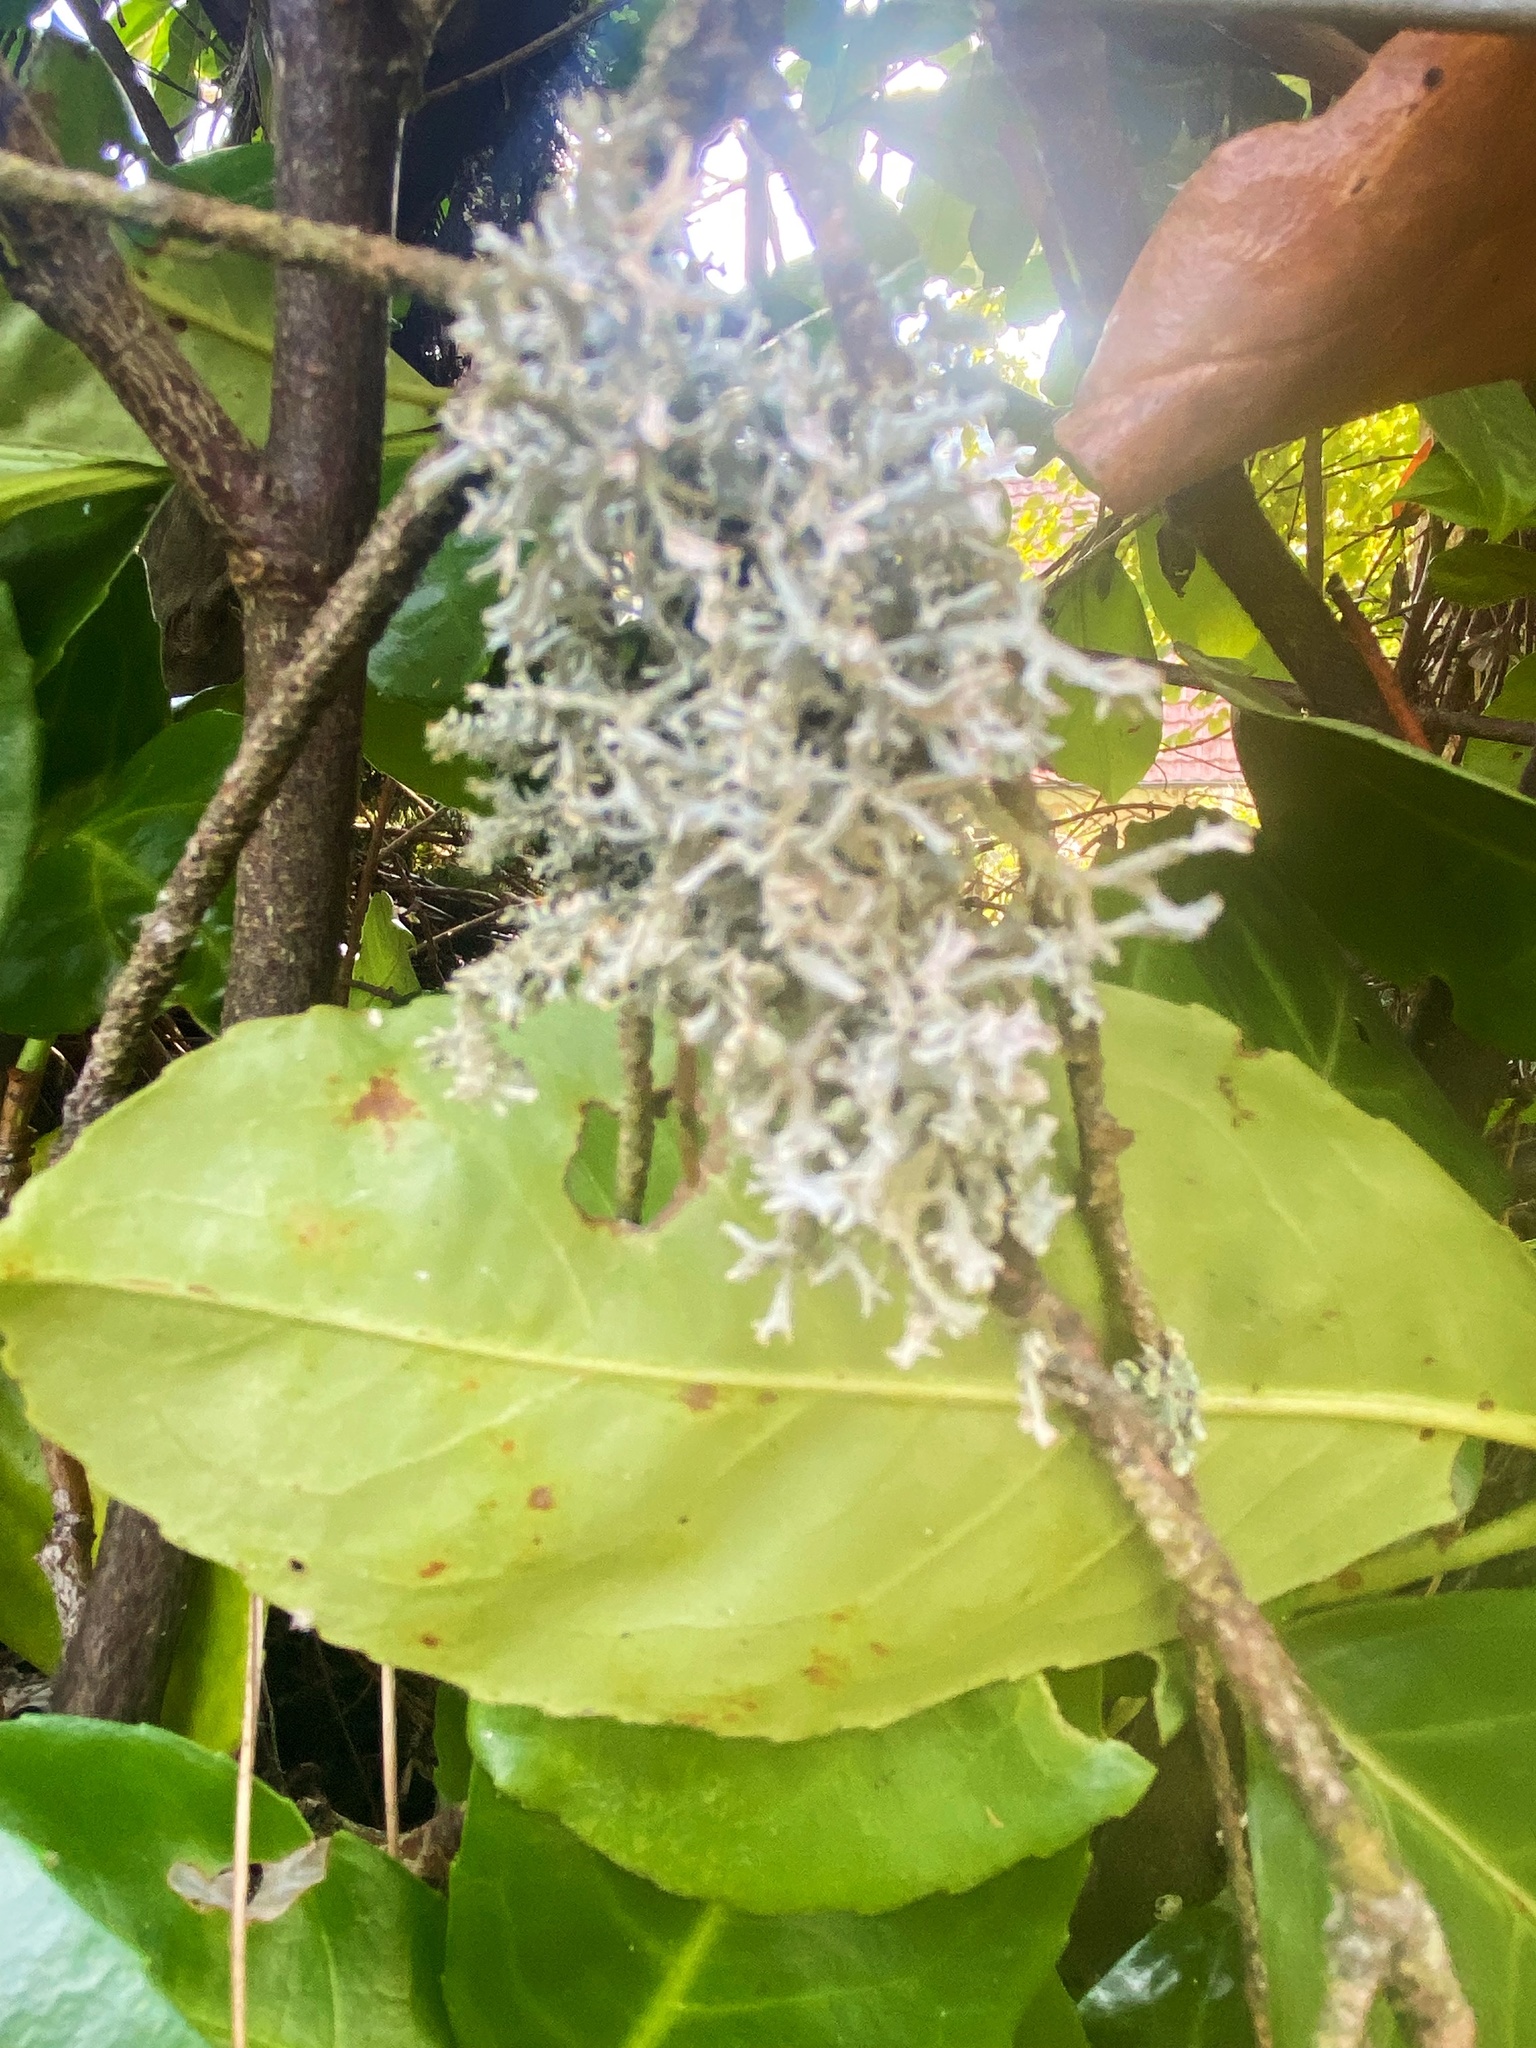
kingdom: Fungi
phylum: Ascomycota
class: Lecanoromycetes
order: Lecanorales
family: Parmeliaceae
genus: Pseudevernia
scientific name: Pseudevernia furfuracea
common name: Tree moss
